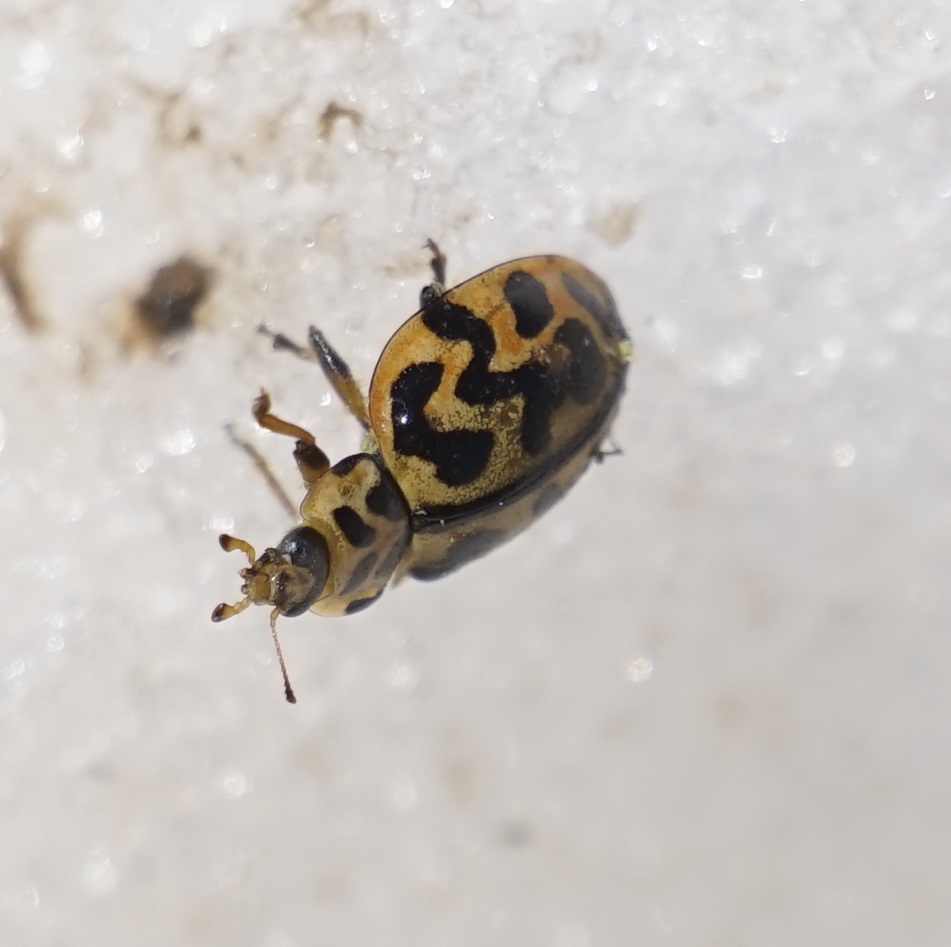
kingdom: Animalia
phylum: Arthropoda
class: Insecta
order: Coleoptera
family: Coccinellidae
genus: Cleobora
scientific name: Cleobora
